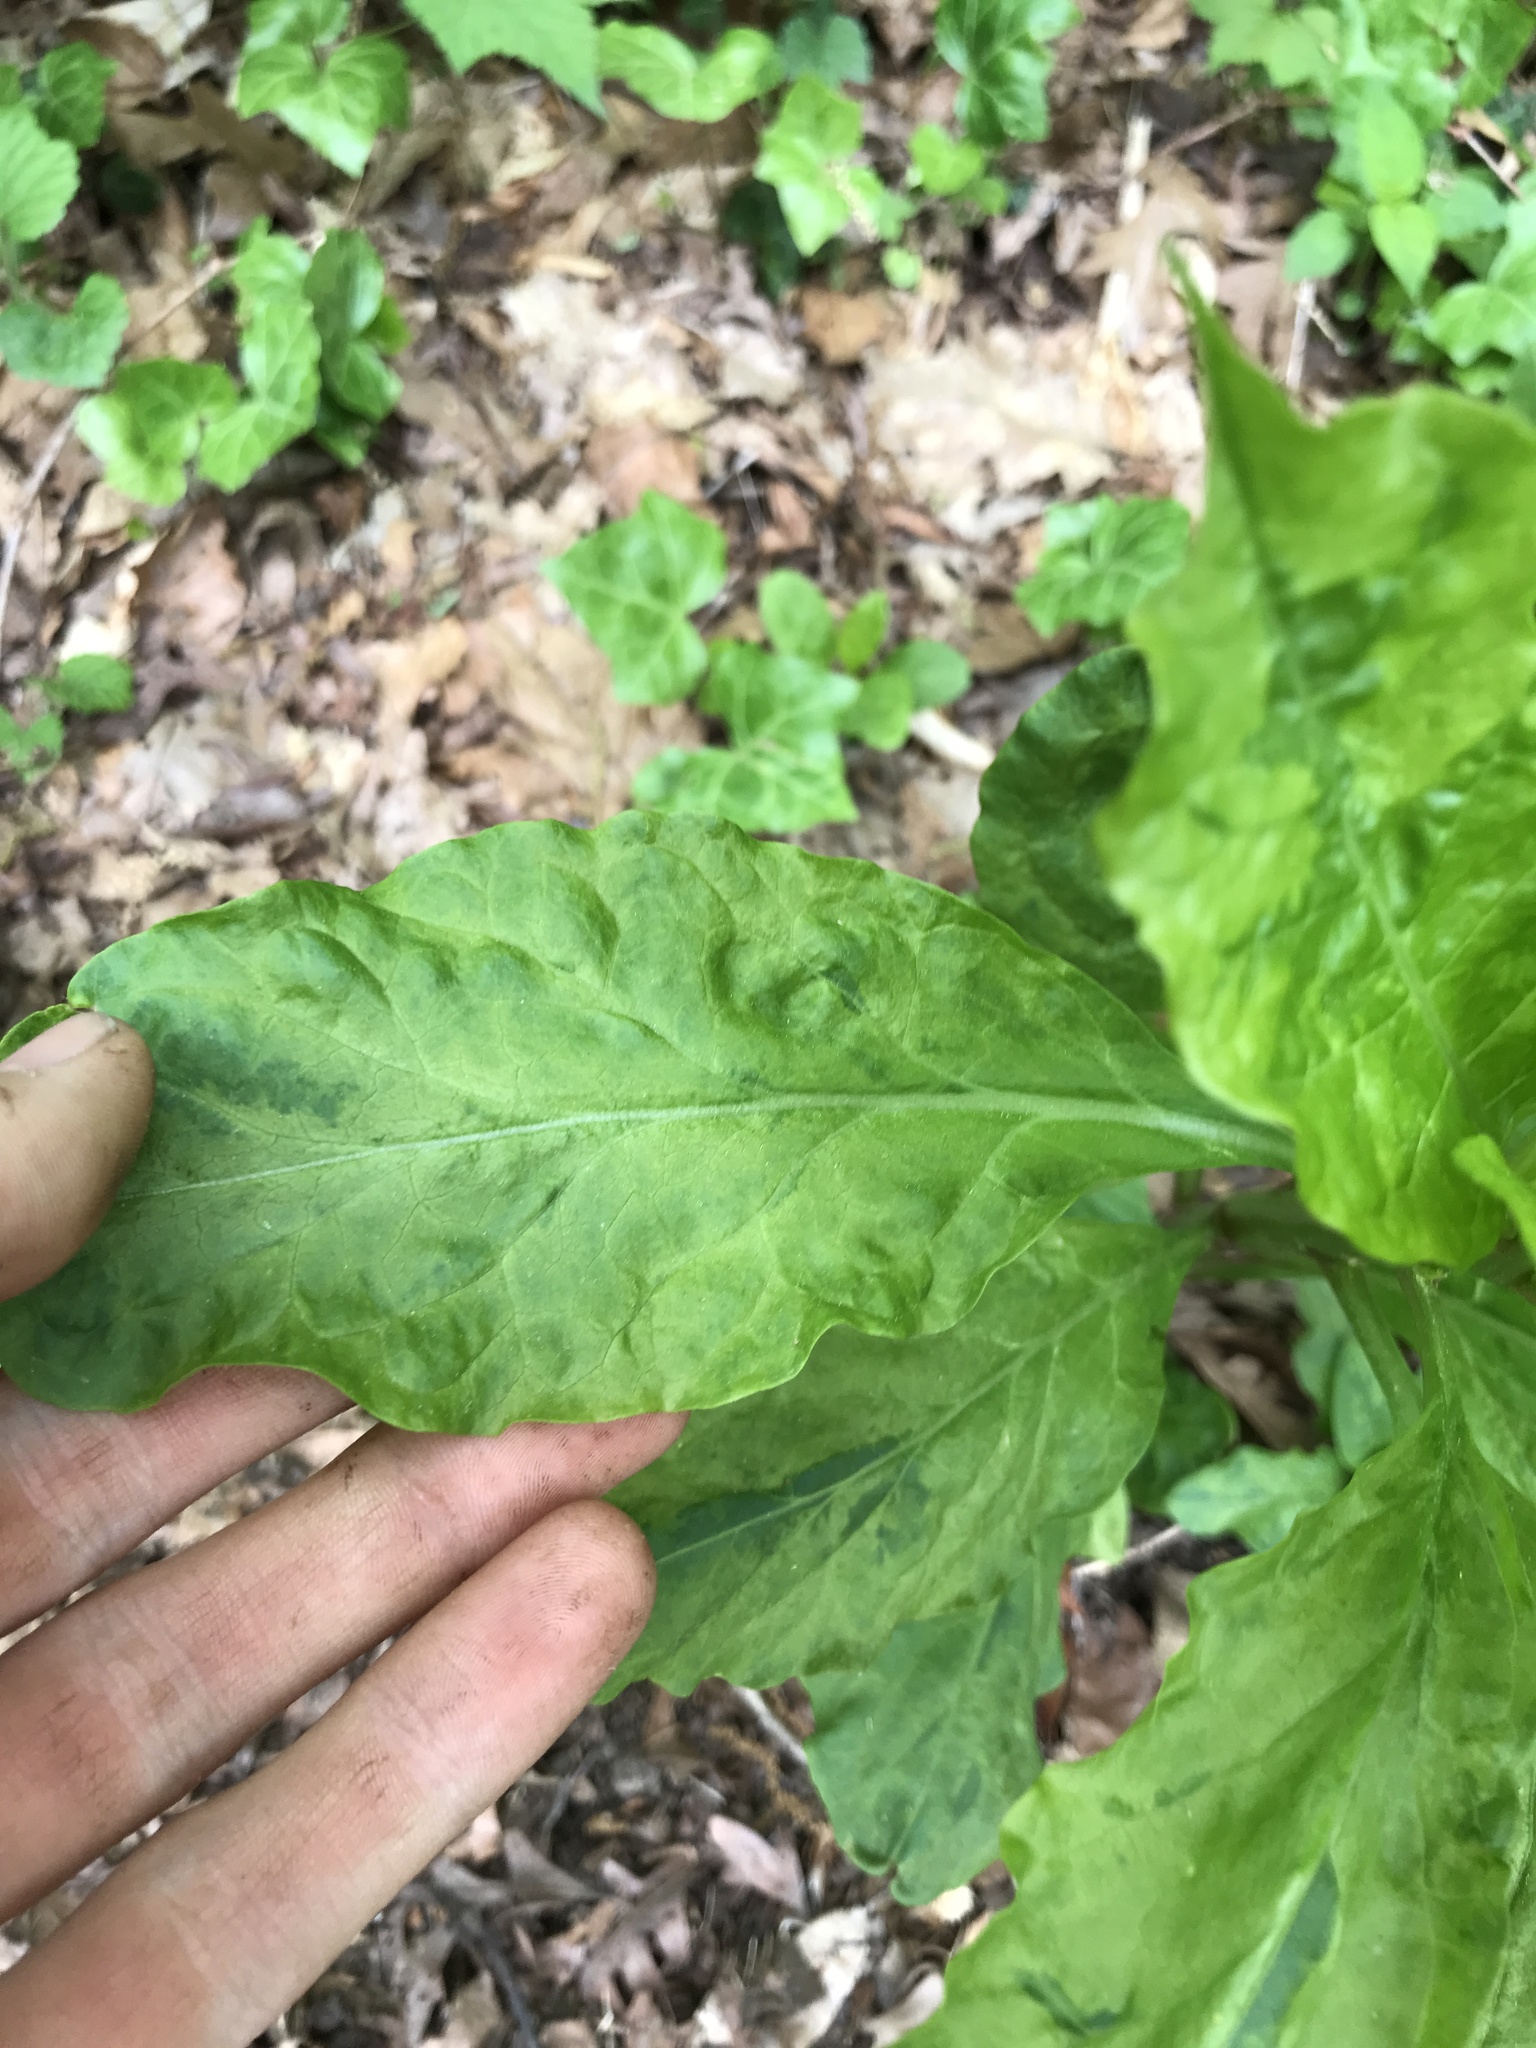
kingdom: Viruses
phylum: Pisuviricota
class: Stelpaviricetes
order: Patatavirales
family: Potyviridae
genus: Potyvirus
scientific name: Potyvirus Pokeweed mosaic virus
